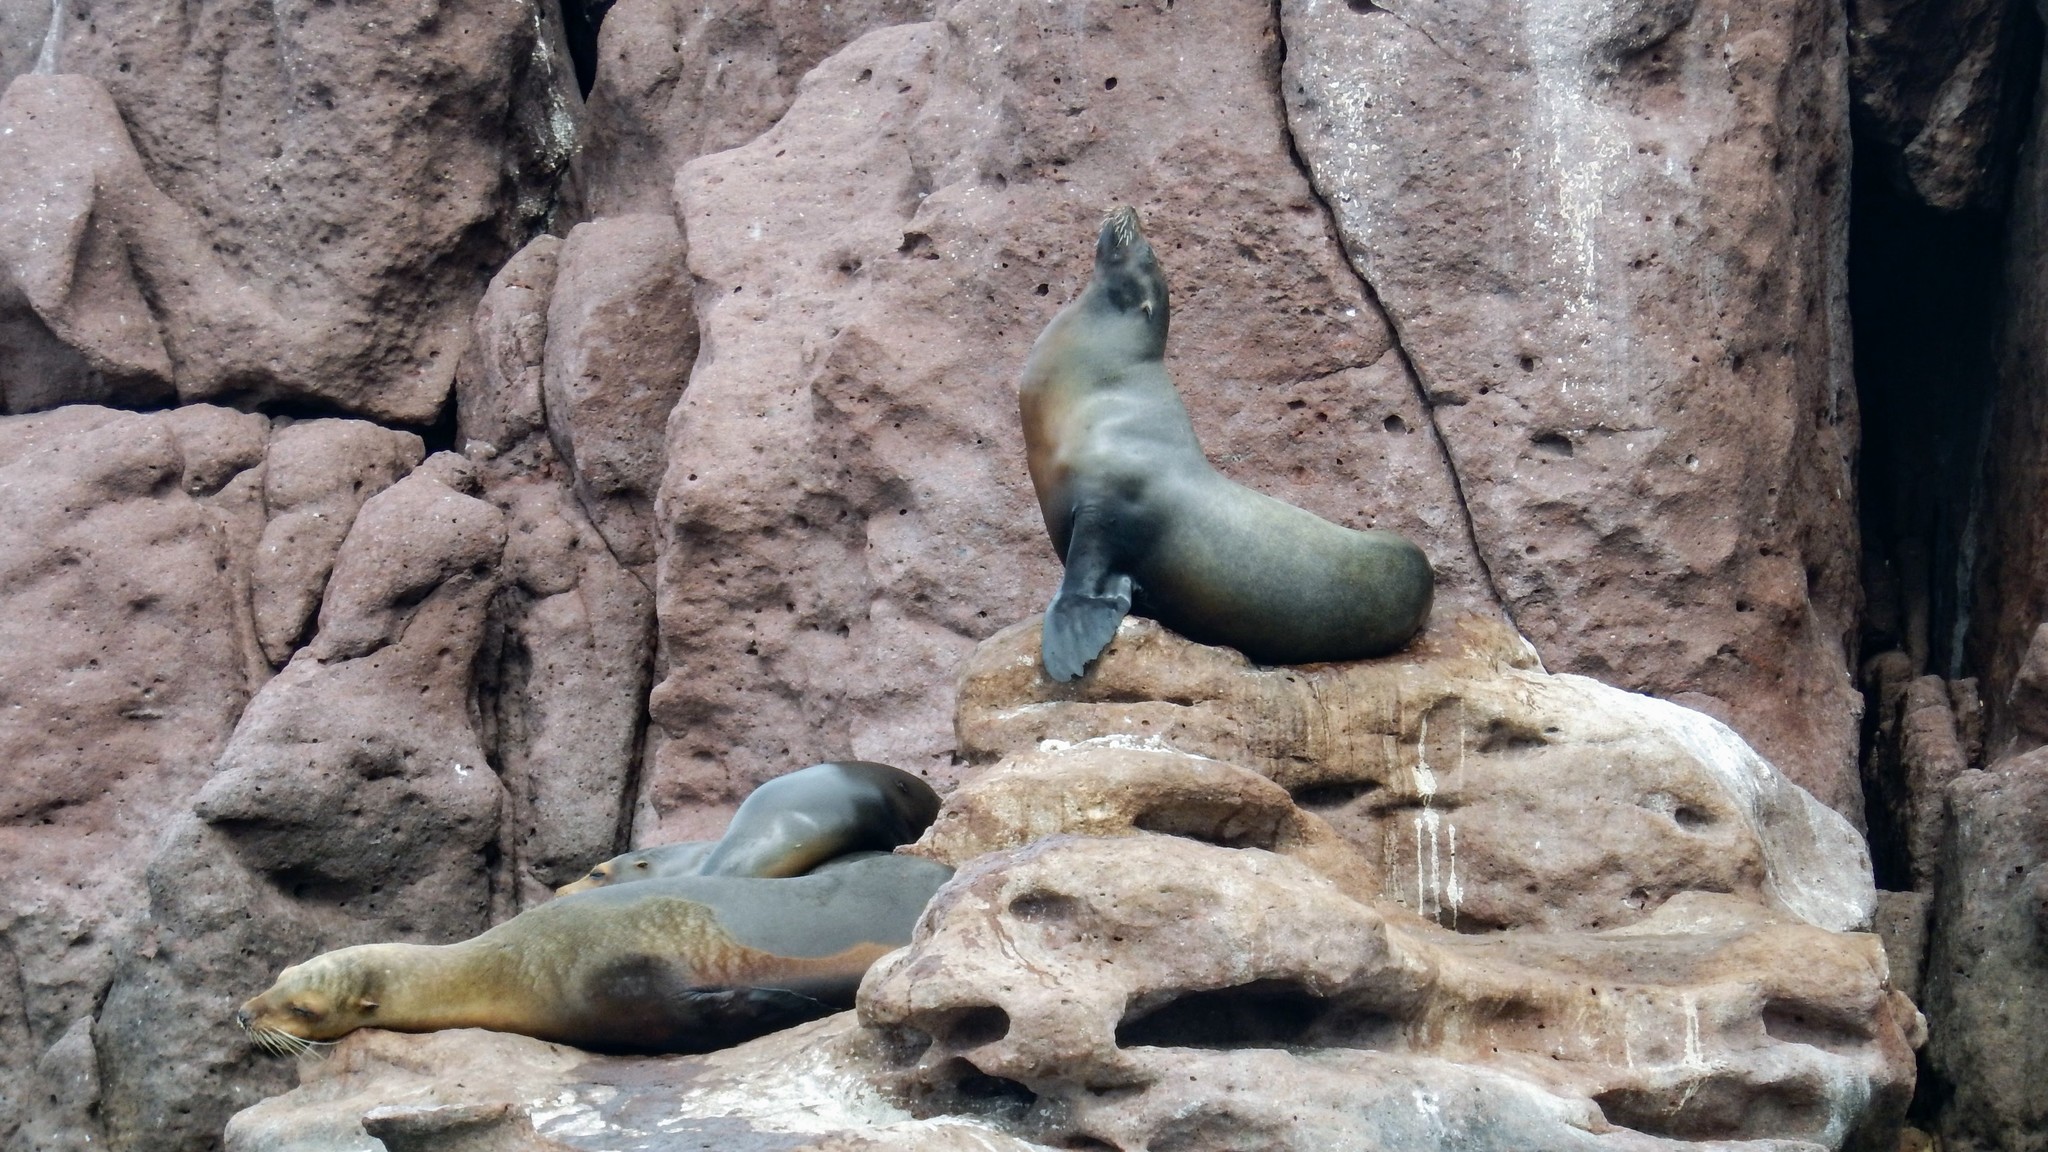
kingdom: Animalia
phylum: Chordata
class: Mammalia
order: Carnivora
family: Otariidae
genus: Zalophus
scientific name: Zalophus californianus
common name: California sea lion
